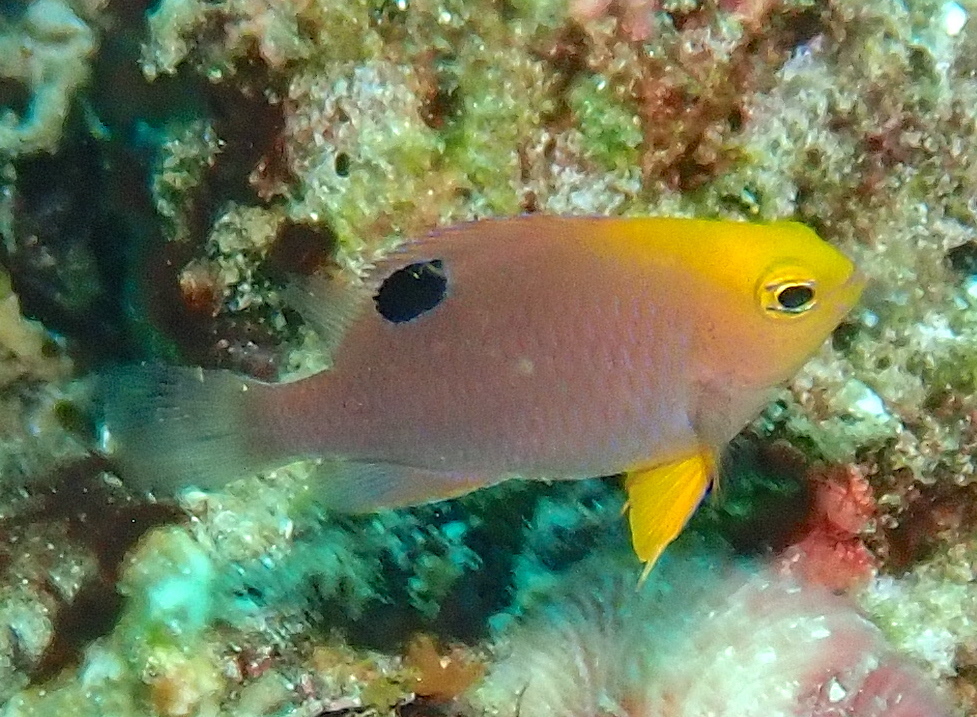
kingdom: Animalia
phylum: Chordata
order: Perciformes
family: Pomacentridae
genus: Chrysiptera
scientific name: Chrysiptera talboti
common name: Talbot's demoiselle
